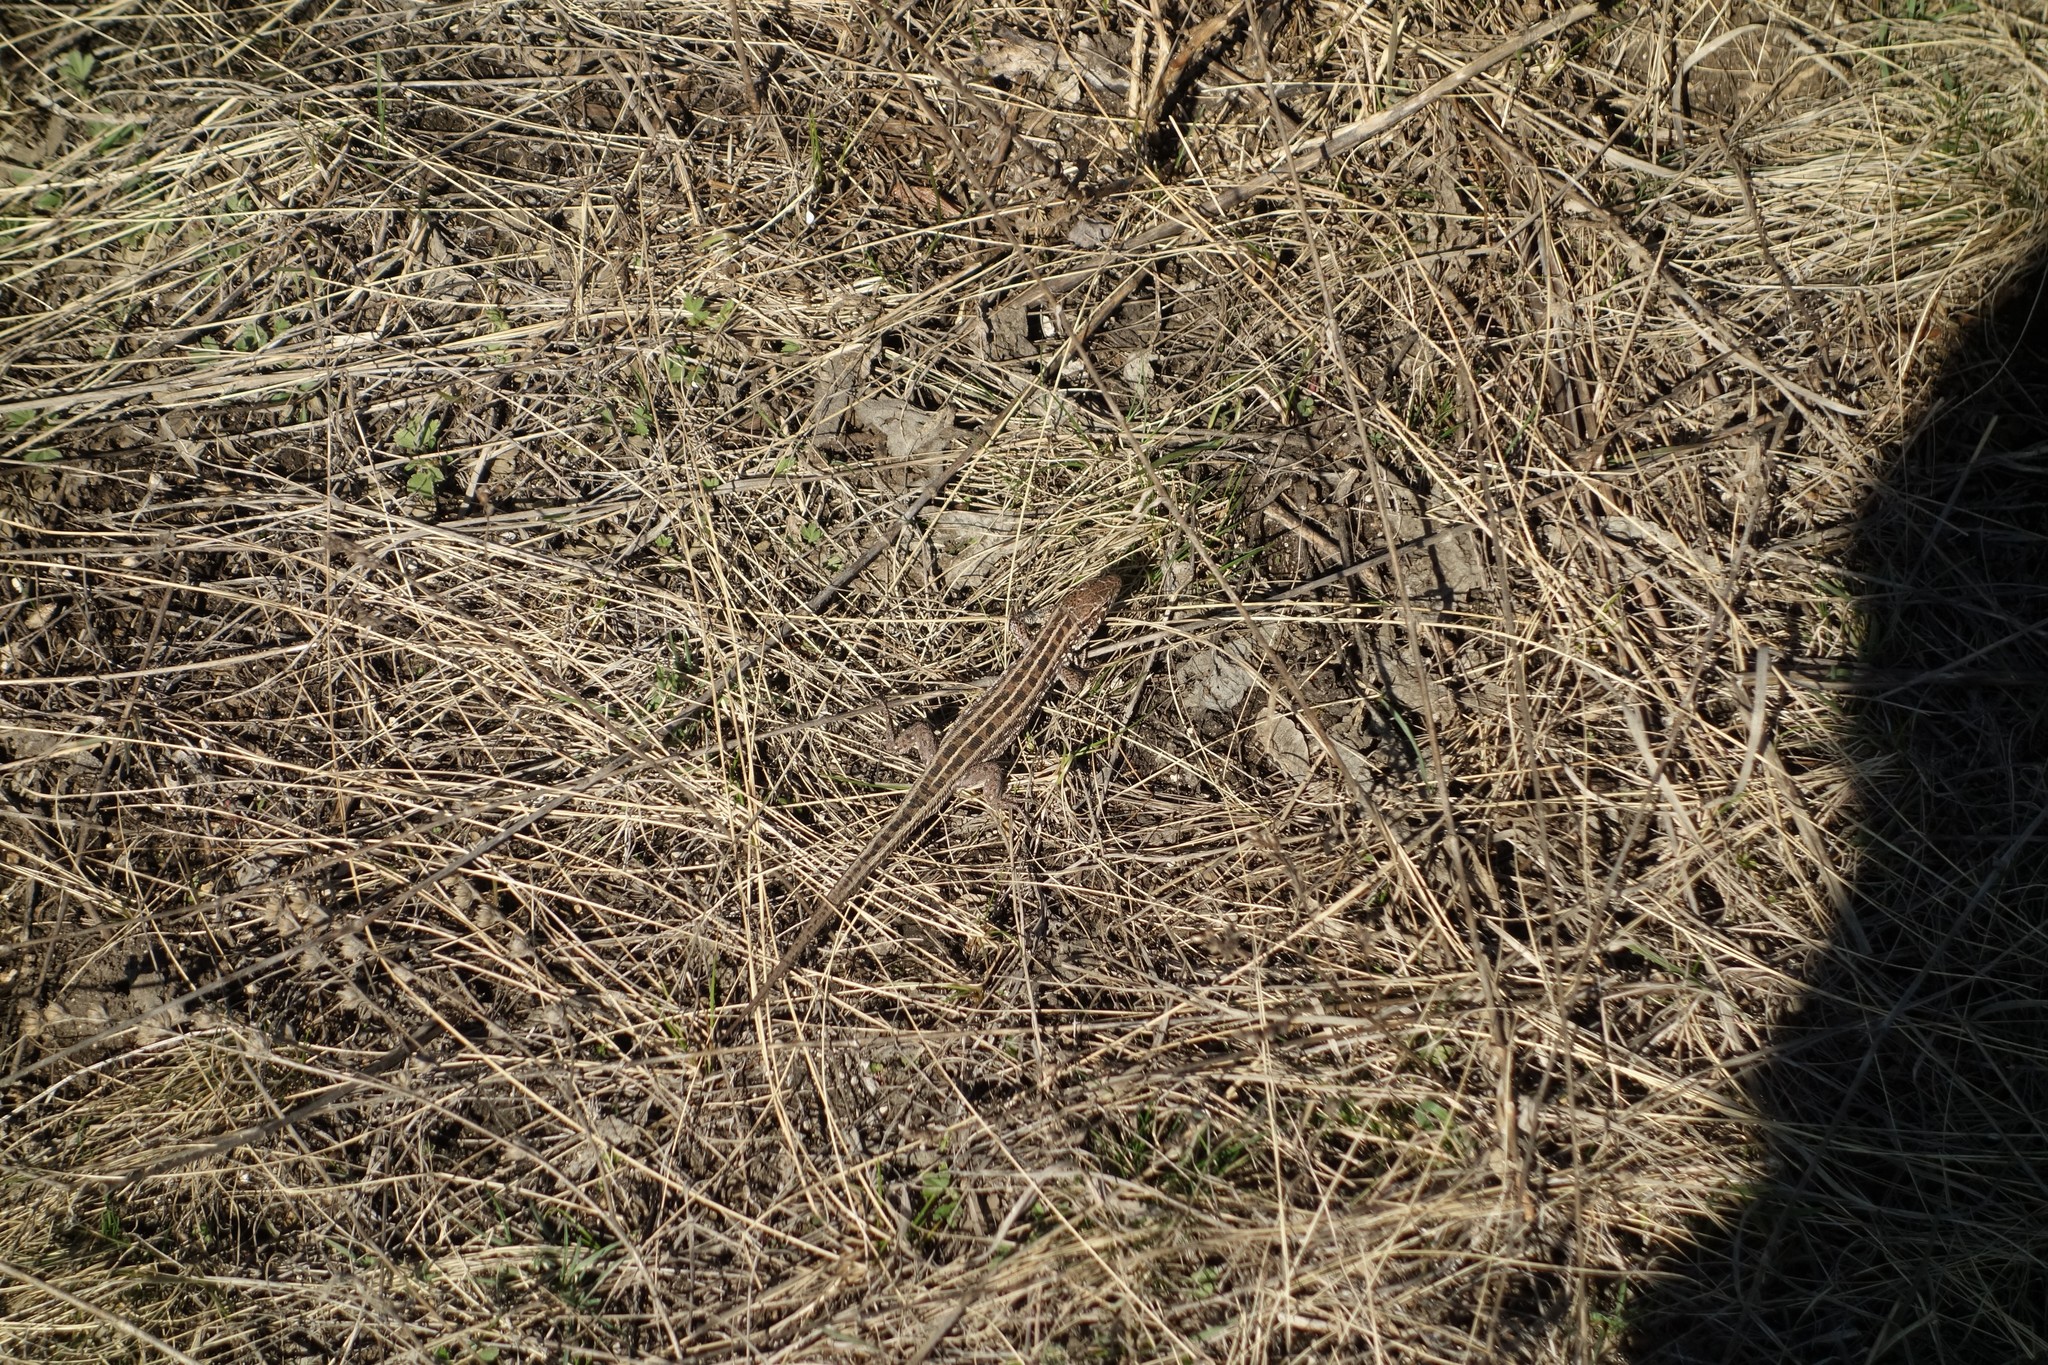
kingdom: Animalia
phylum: Chordata
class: Squamata
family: Lacertidae
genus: Lacerta
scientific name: Lacerta agilis
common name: Sand lizard
